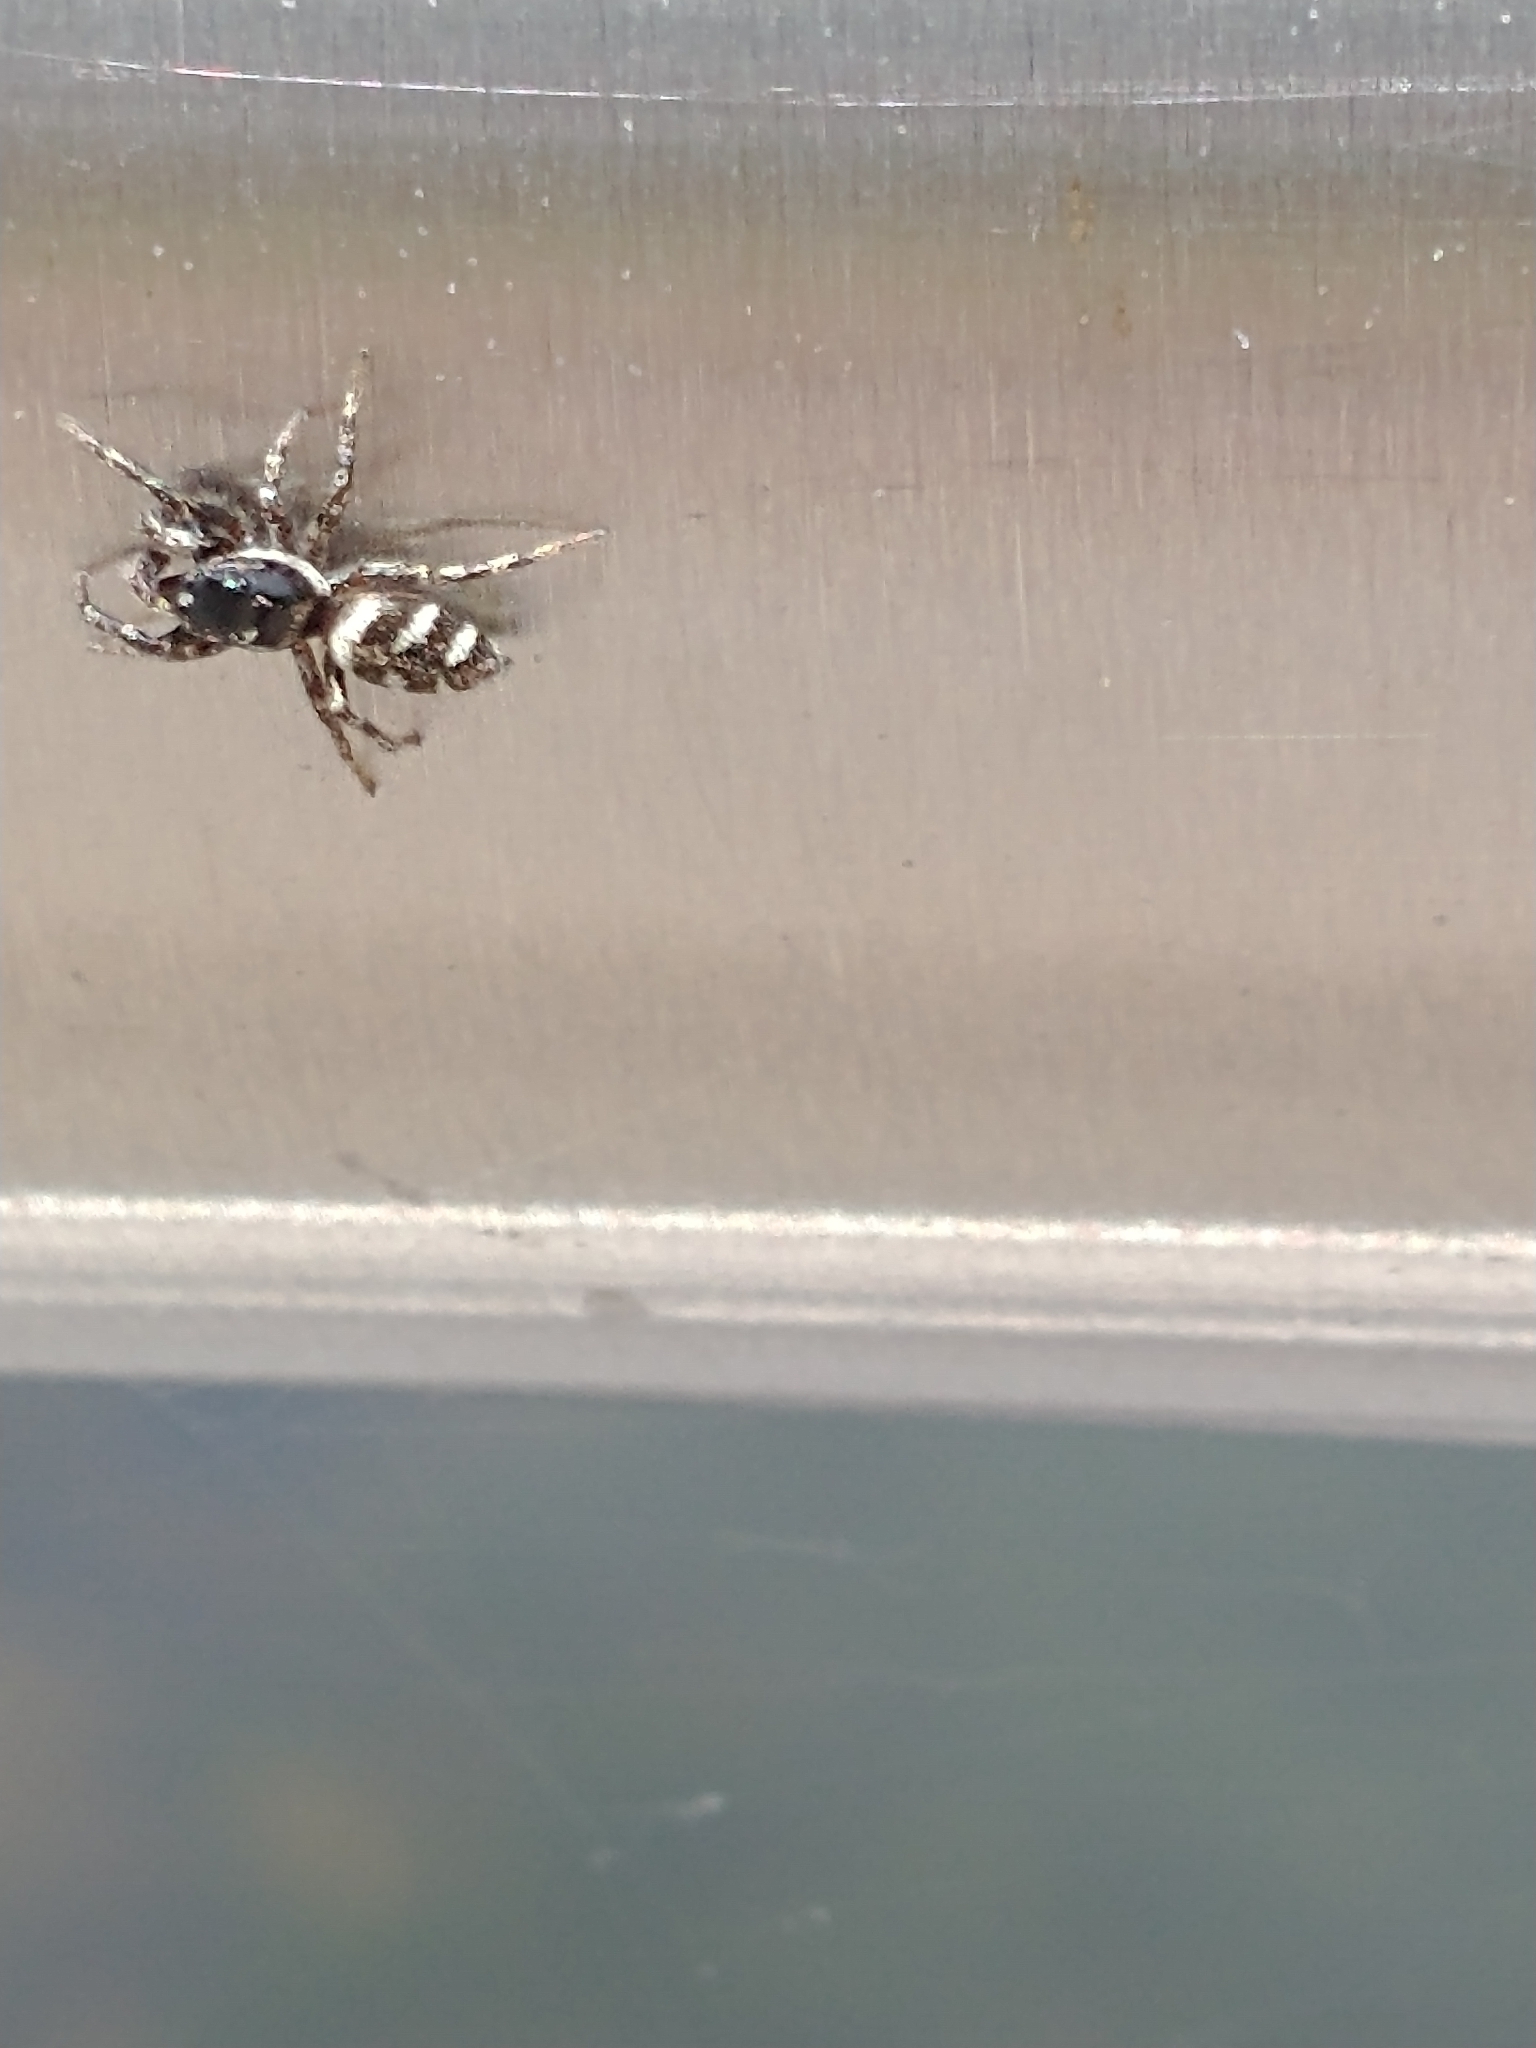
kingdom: Animalia
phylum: Arthropoda
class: Arachnida
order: Araneae
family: Salticidae
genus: Salticus
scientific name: Salticus scenicus
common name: Zebra jumper
